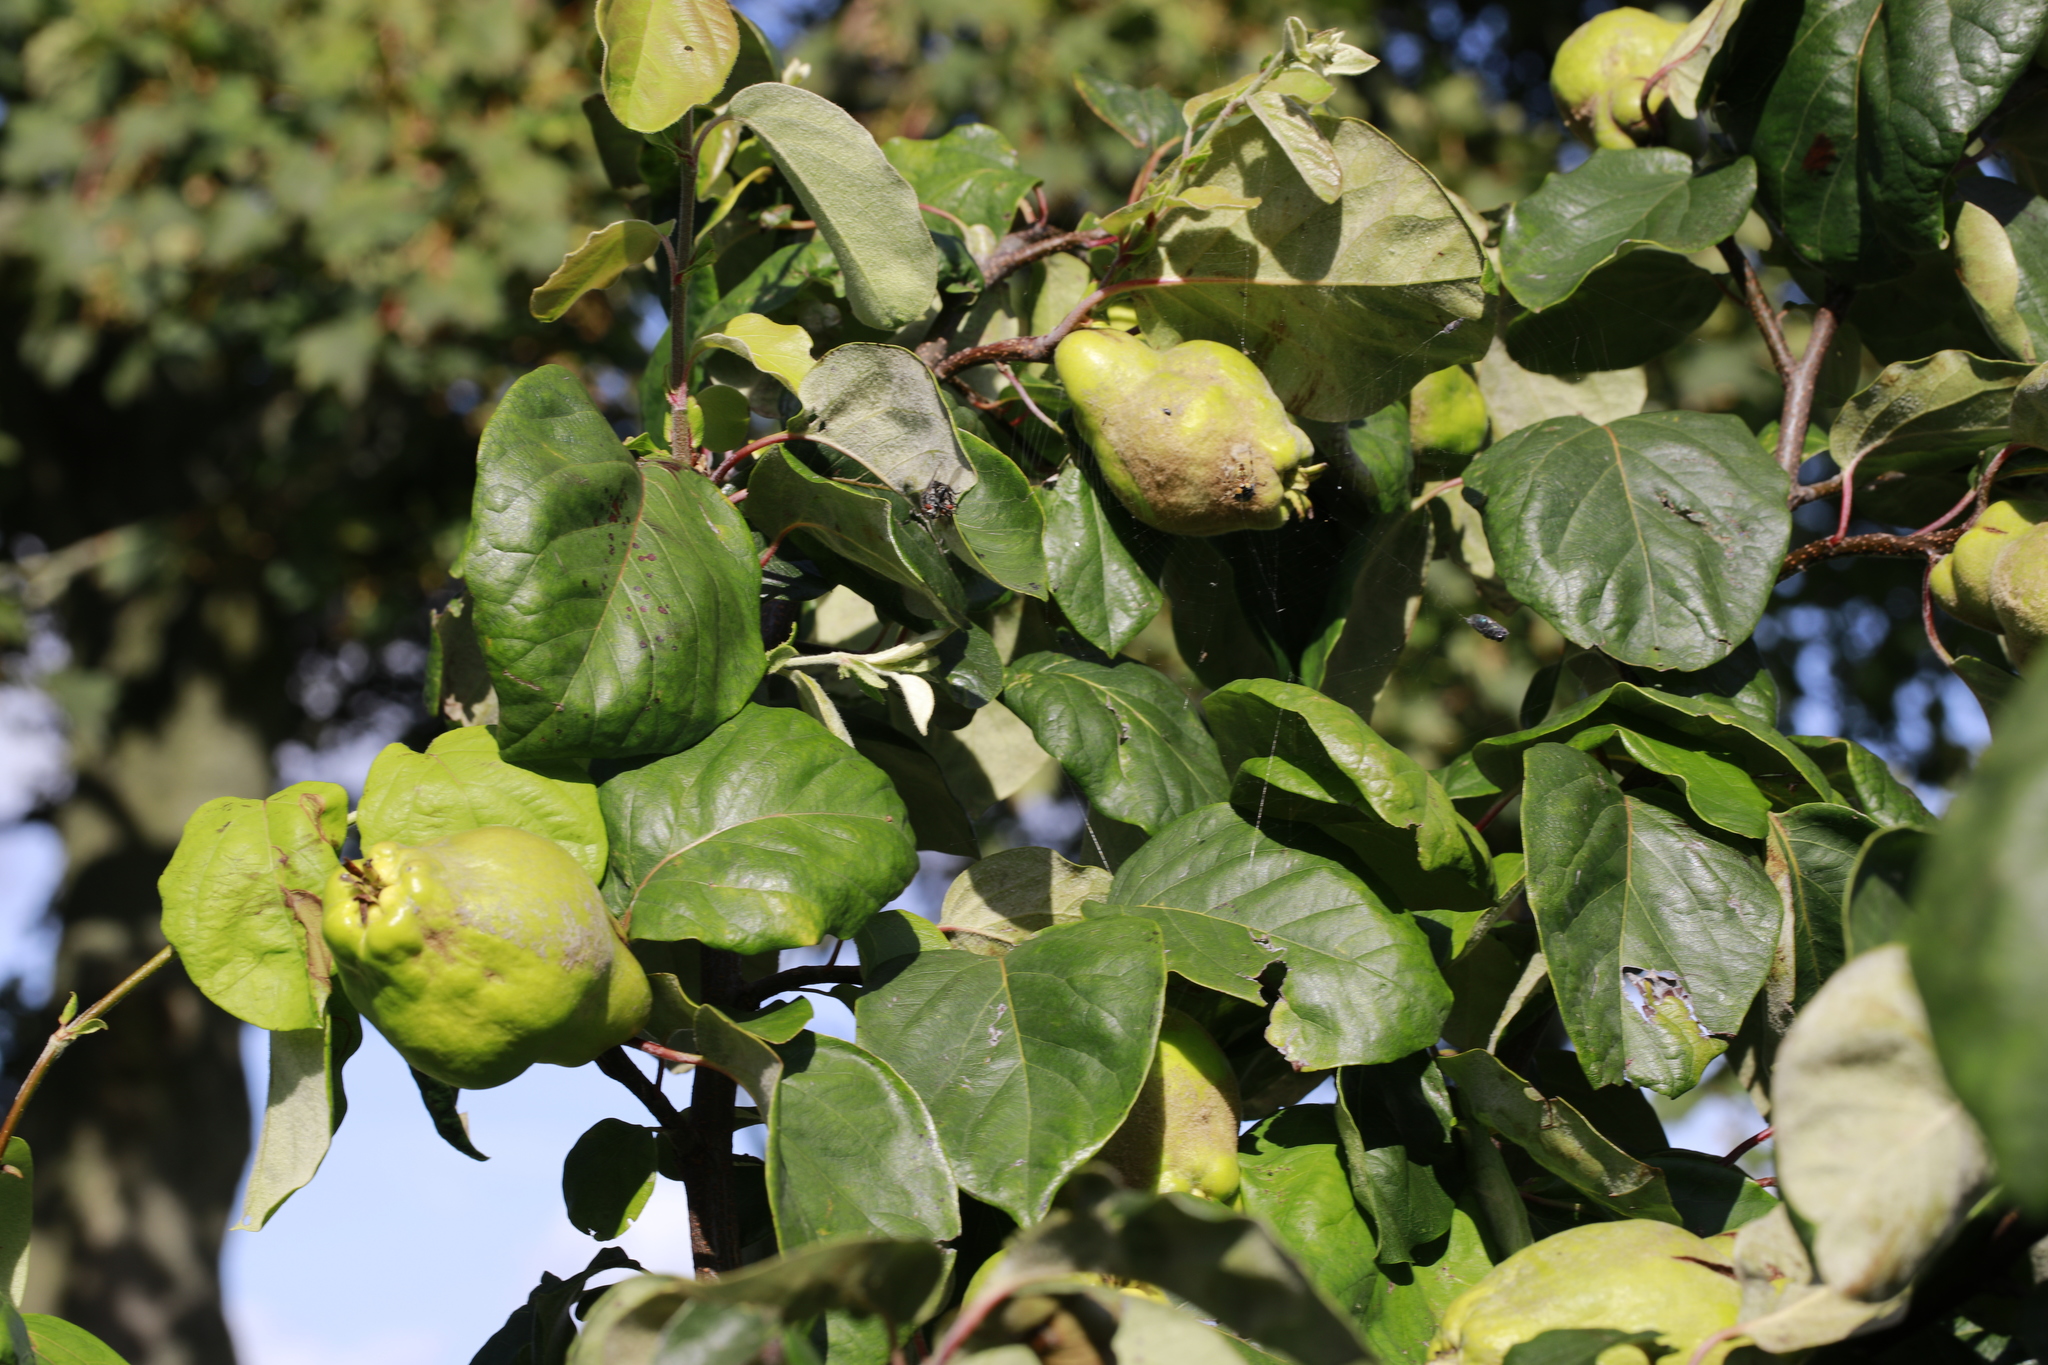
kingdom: Plantae
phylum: Tracheophyta
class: Magnoliopsida
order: Rosales
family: Rosaceae
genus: Pyrus
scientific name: Pyrus communis
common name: Pear
